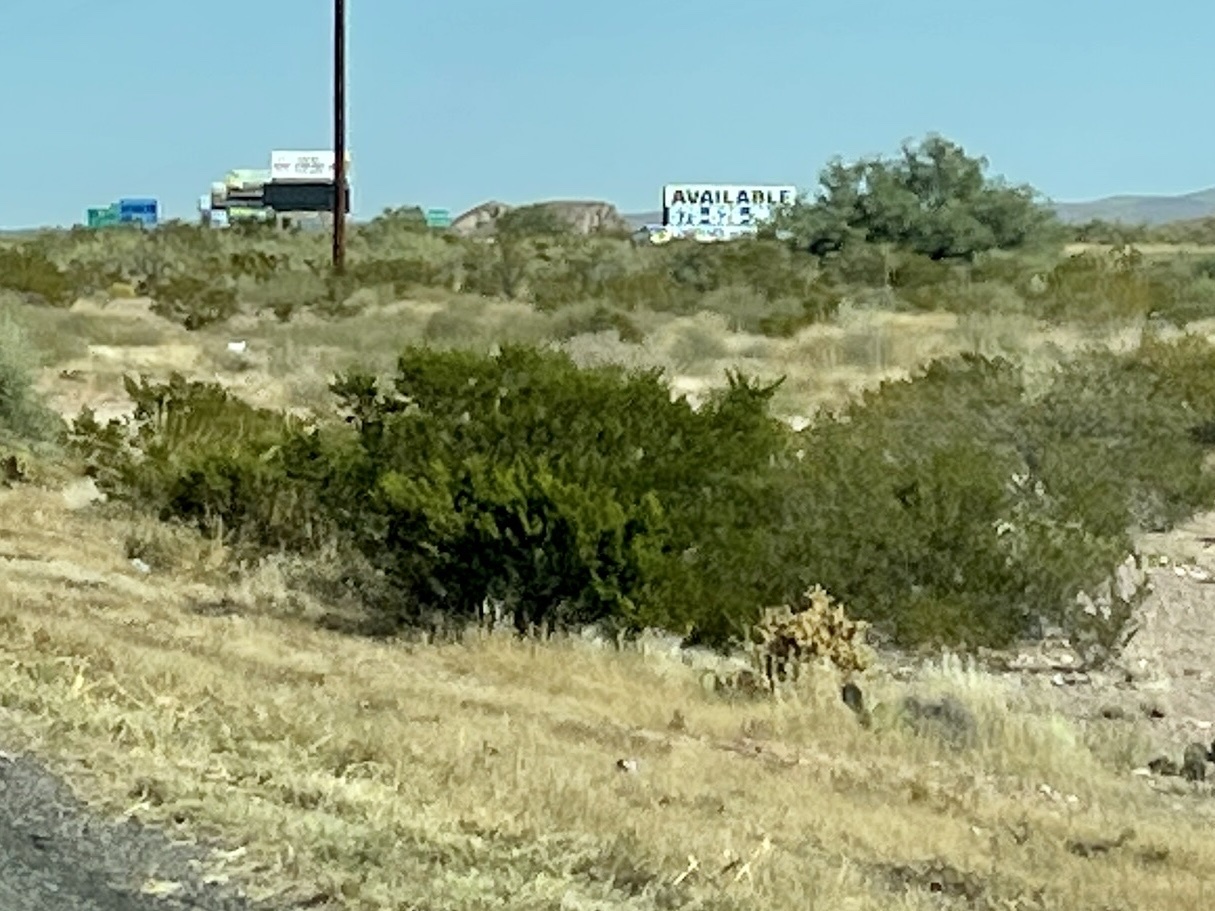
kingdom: Plantae
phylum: Tracheophyta
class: Magnoliopsida
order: Zygophyllales
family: Zygophyllaceae
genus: Larrea
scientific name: Larrea tridentata
